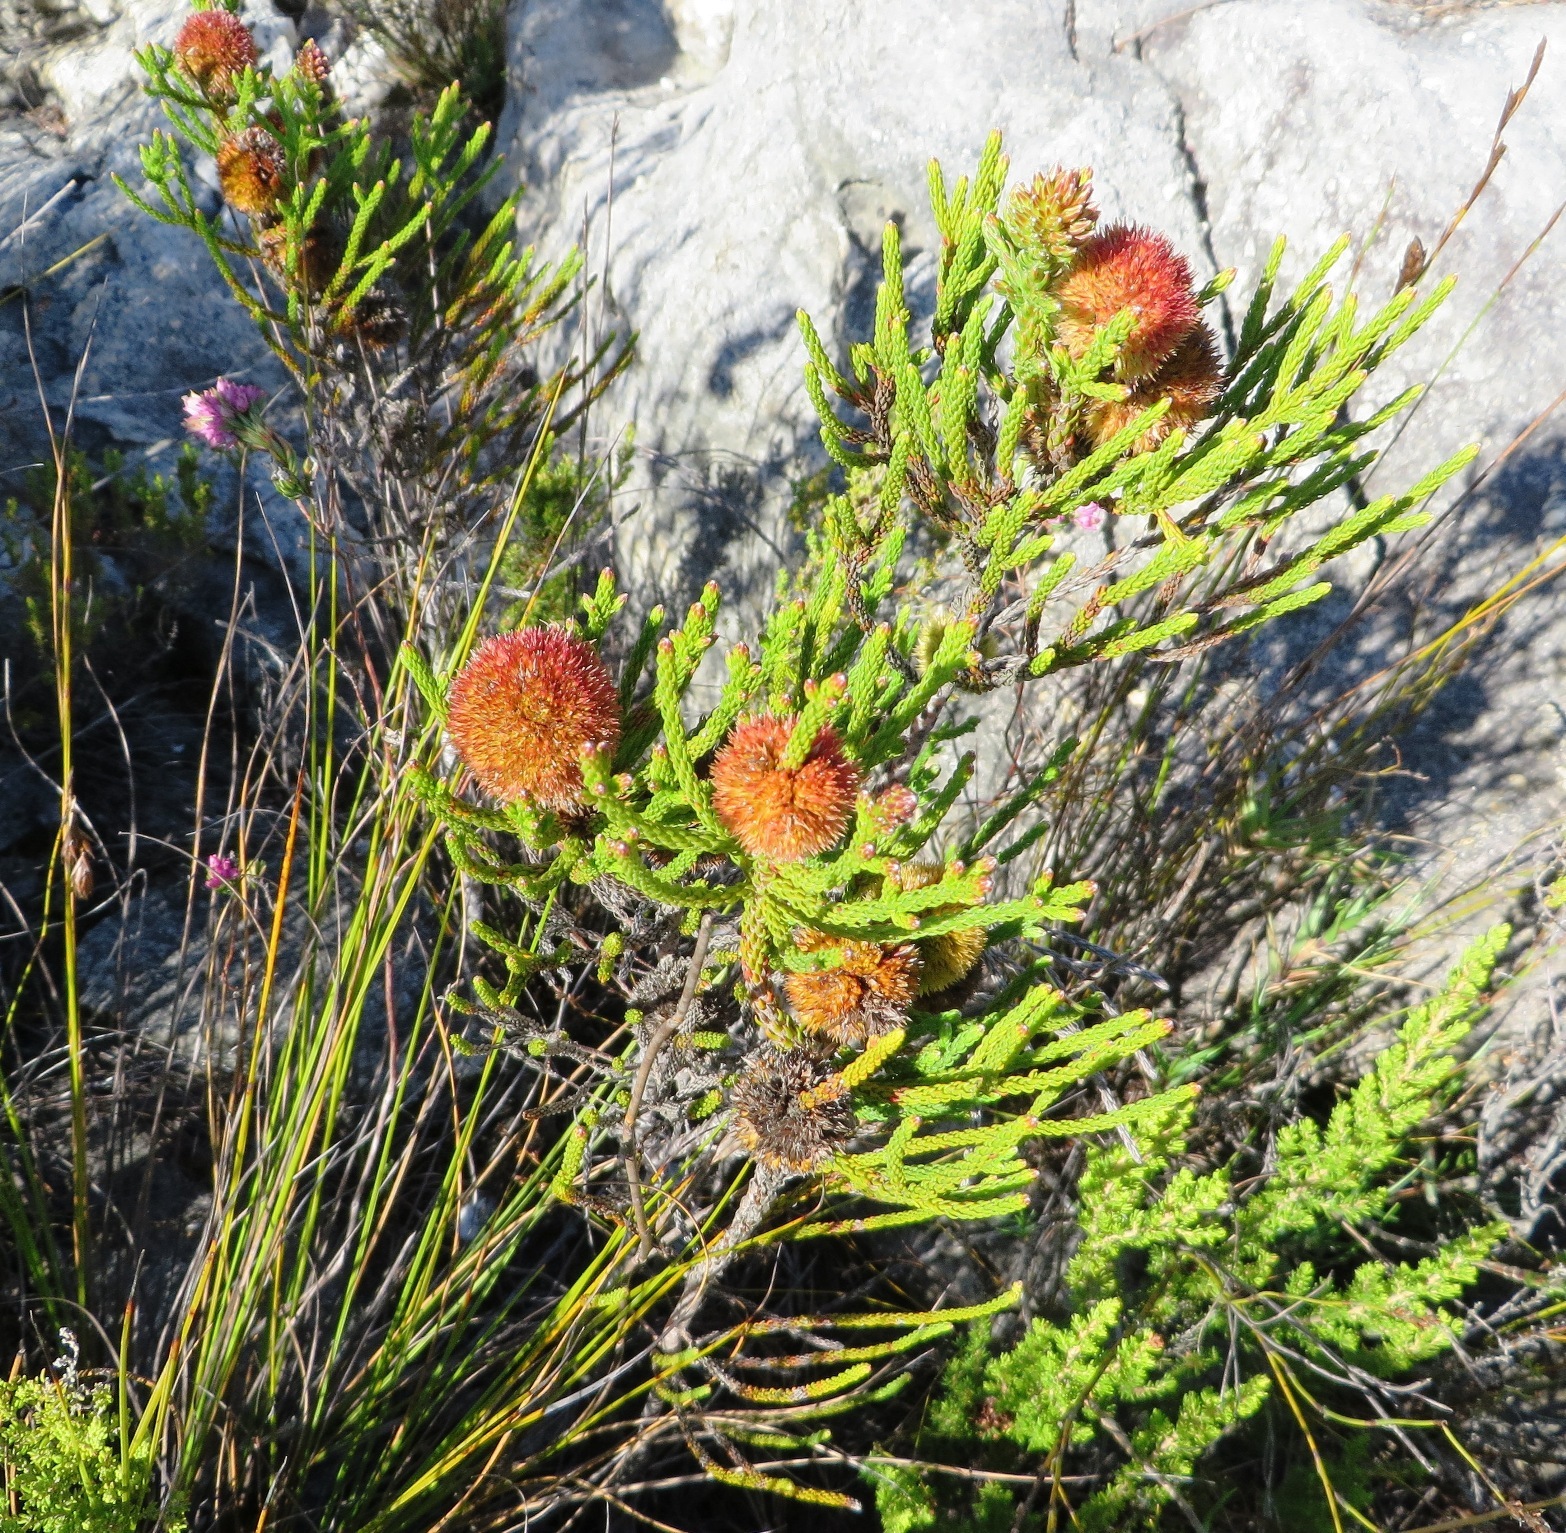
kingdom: Plantae
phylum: Tracheophyta
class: Magnoliopsida
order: Bruniales
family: Bruniaceae
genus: Brunia
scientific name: Brunia fragarioides
